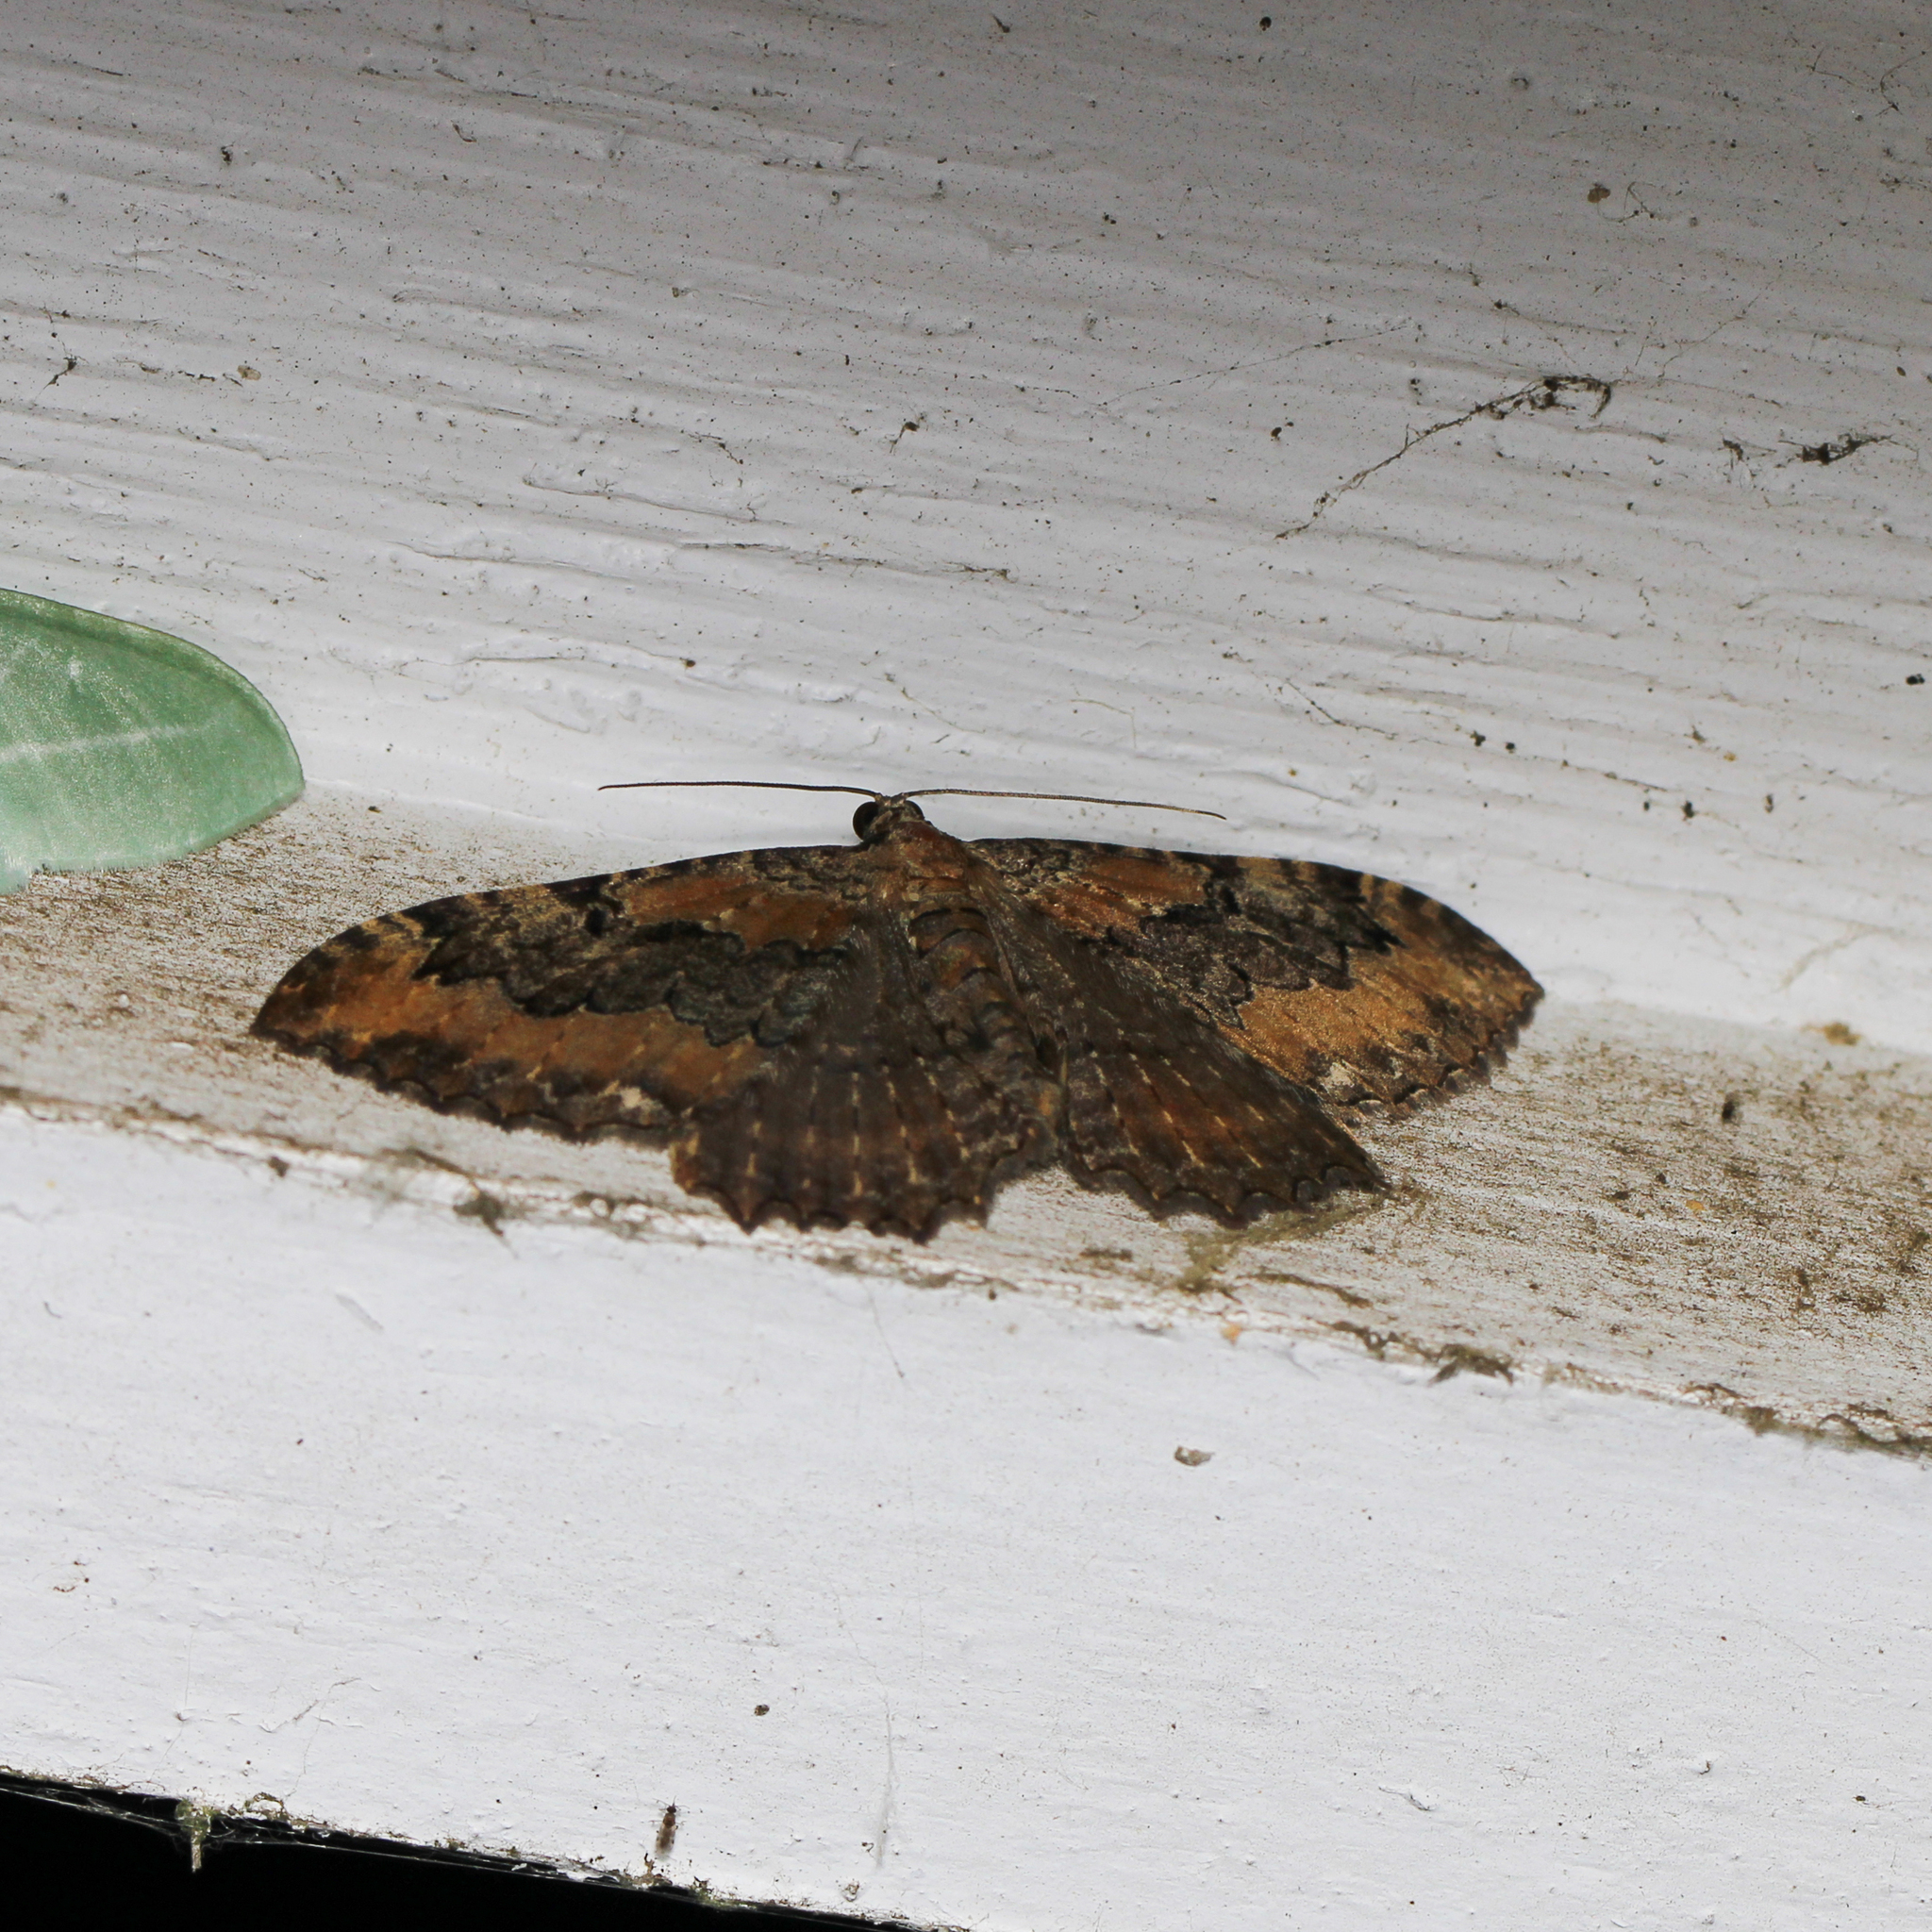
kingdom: Animalia
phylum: Arthropoda
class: Insecta
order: Lepidoptera
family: Geometridae
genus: Rheumaptera
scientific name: Rheumaptera
